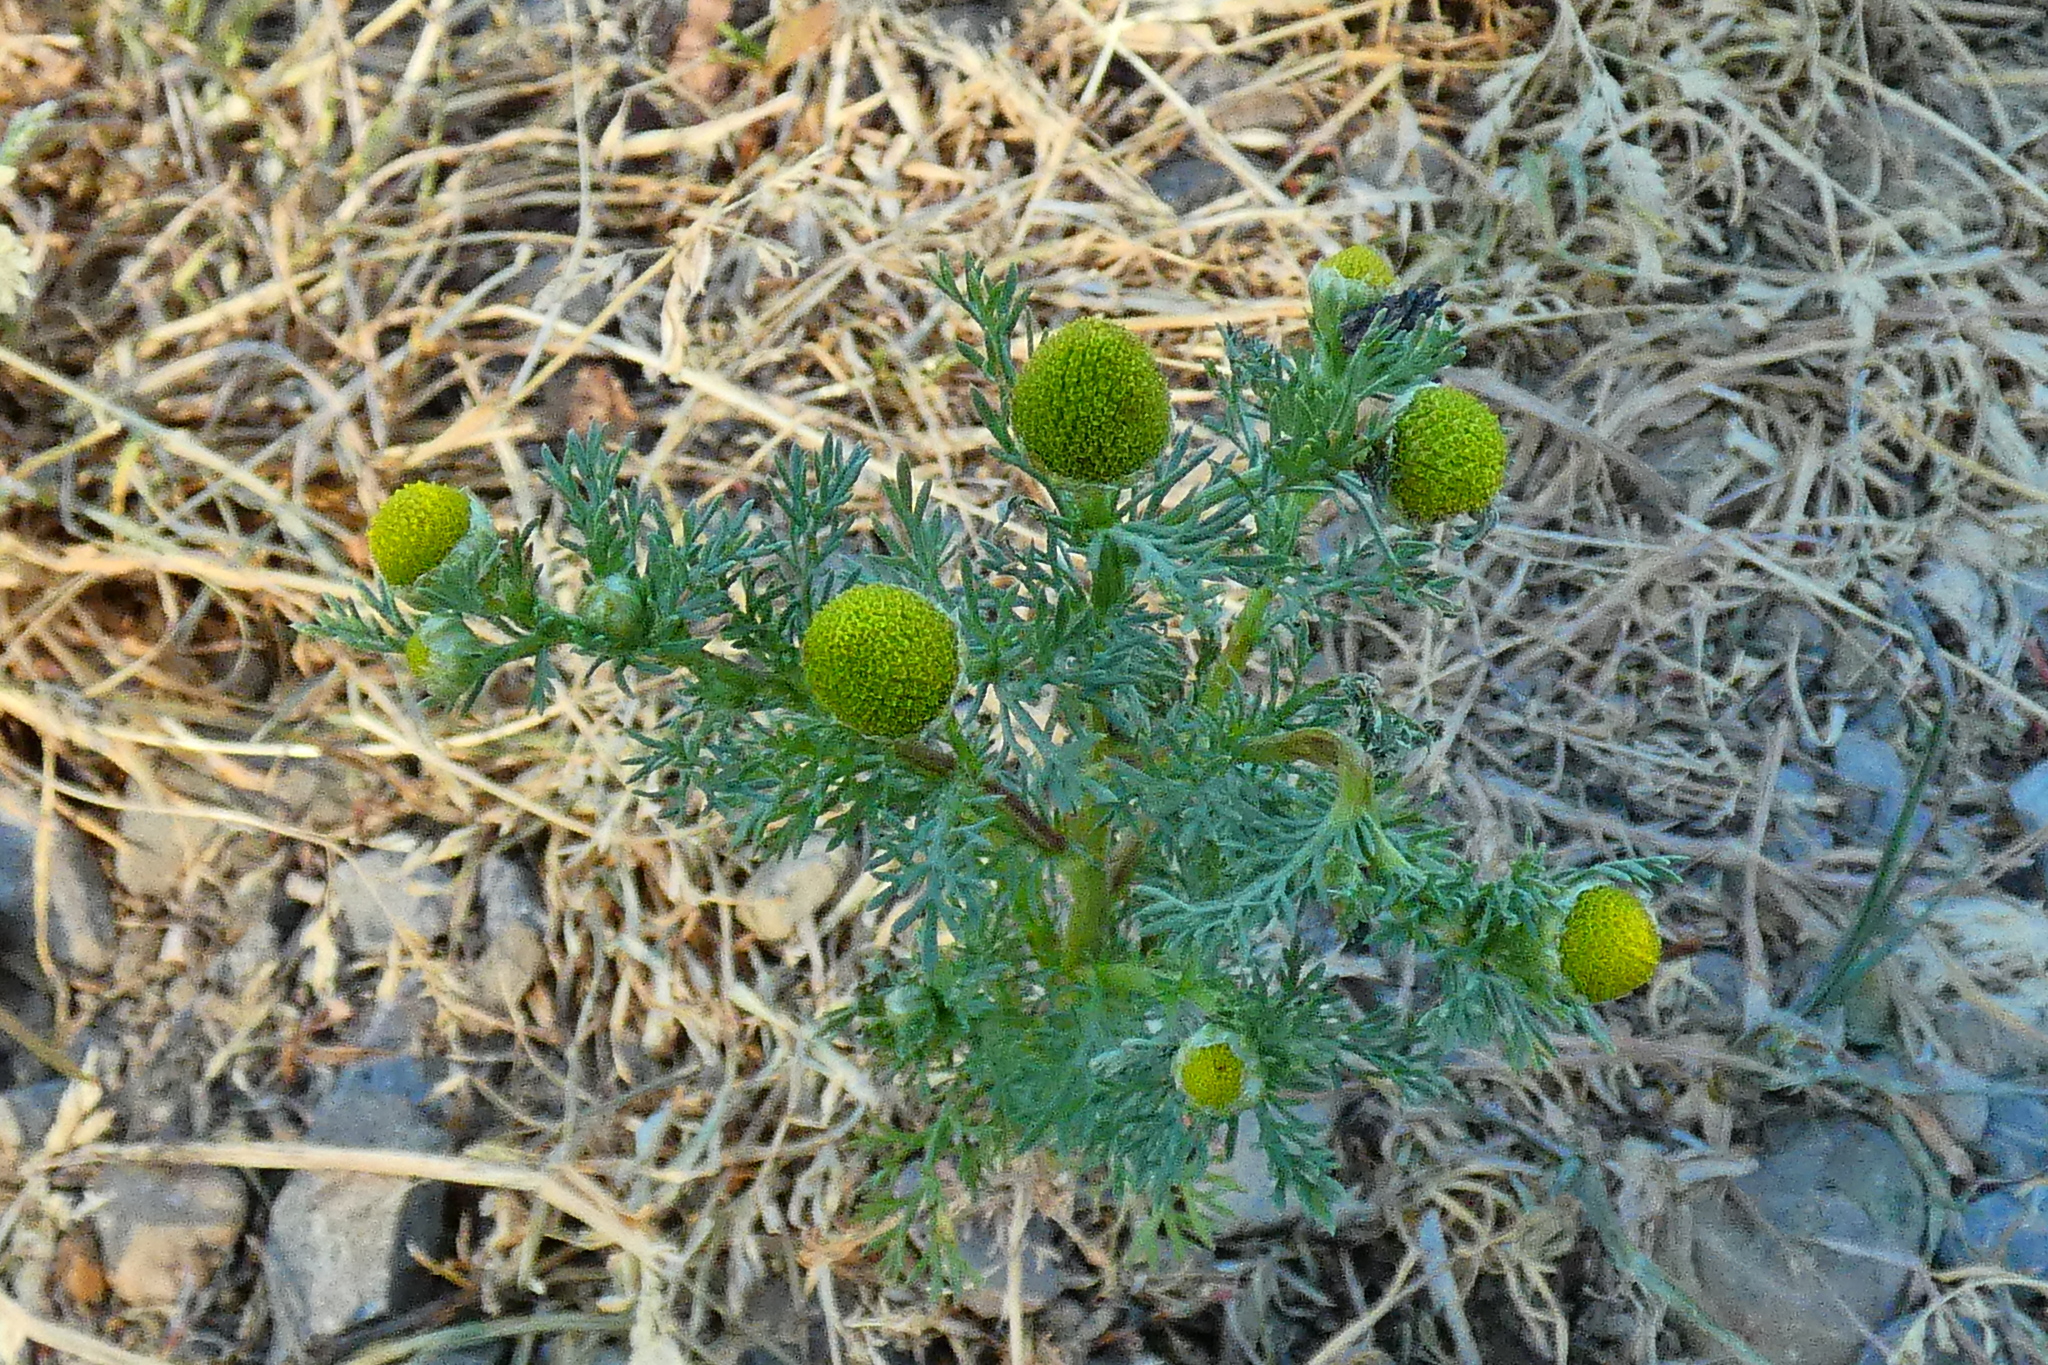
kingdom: Plantae
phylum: Tracheophyta
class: Magnoliopsida
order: Asterales
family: Asteraceae
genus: Matricaria
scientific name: Matricaria discoidea
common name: Disc mayweed
